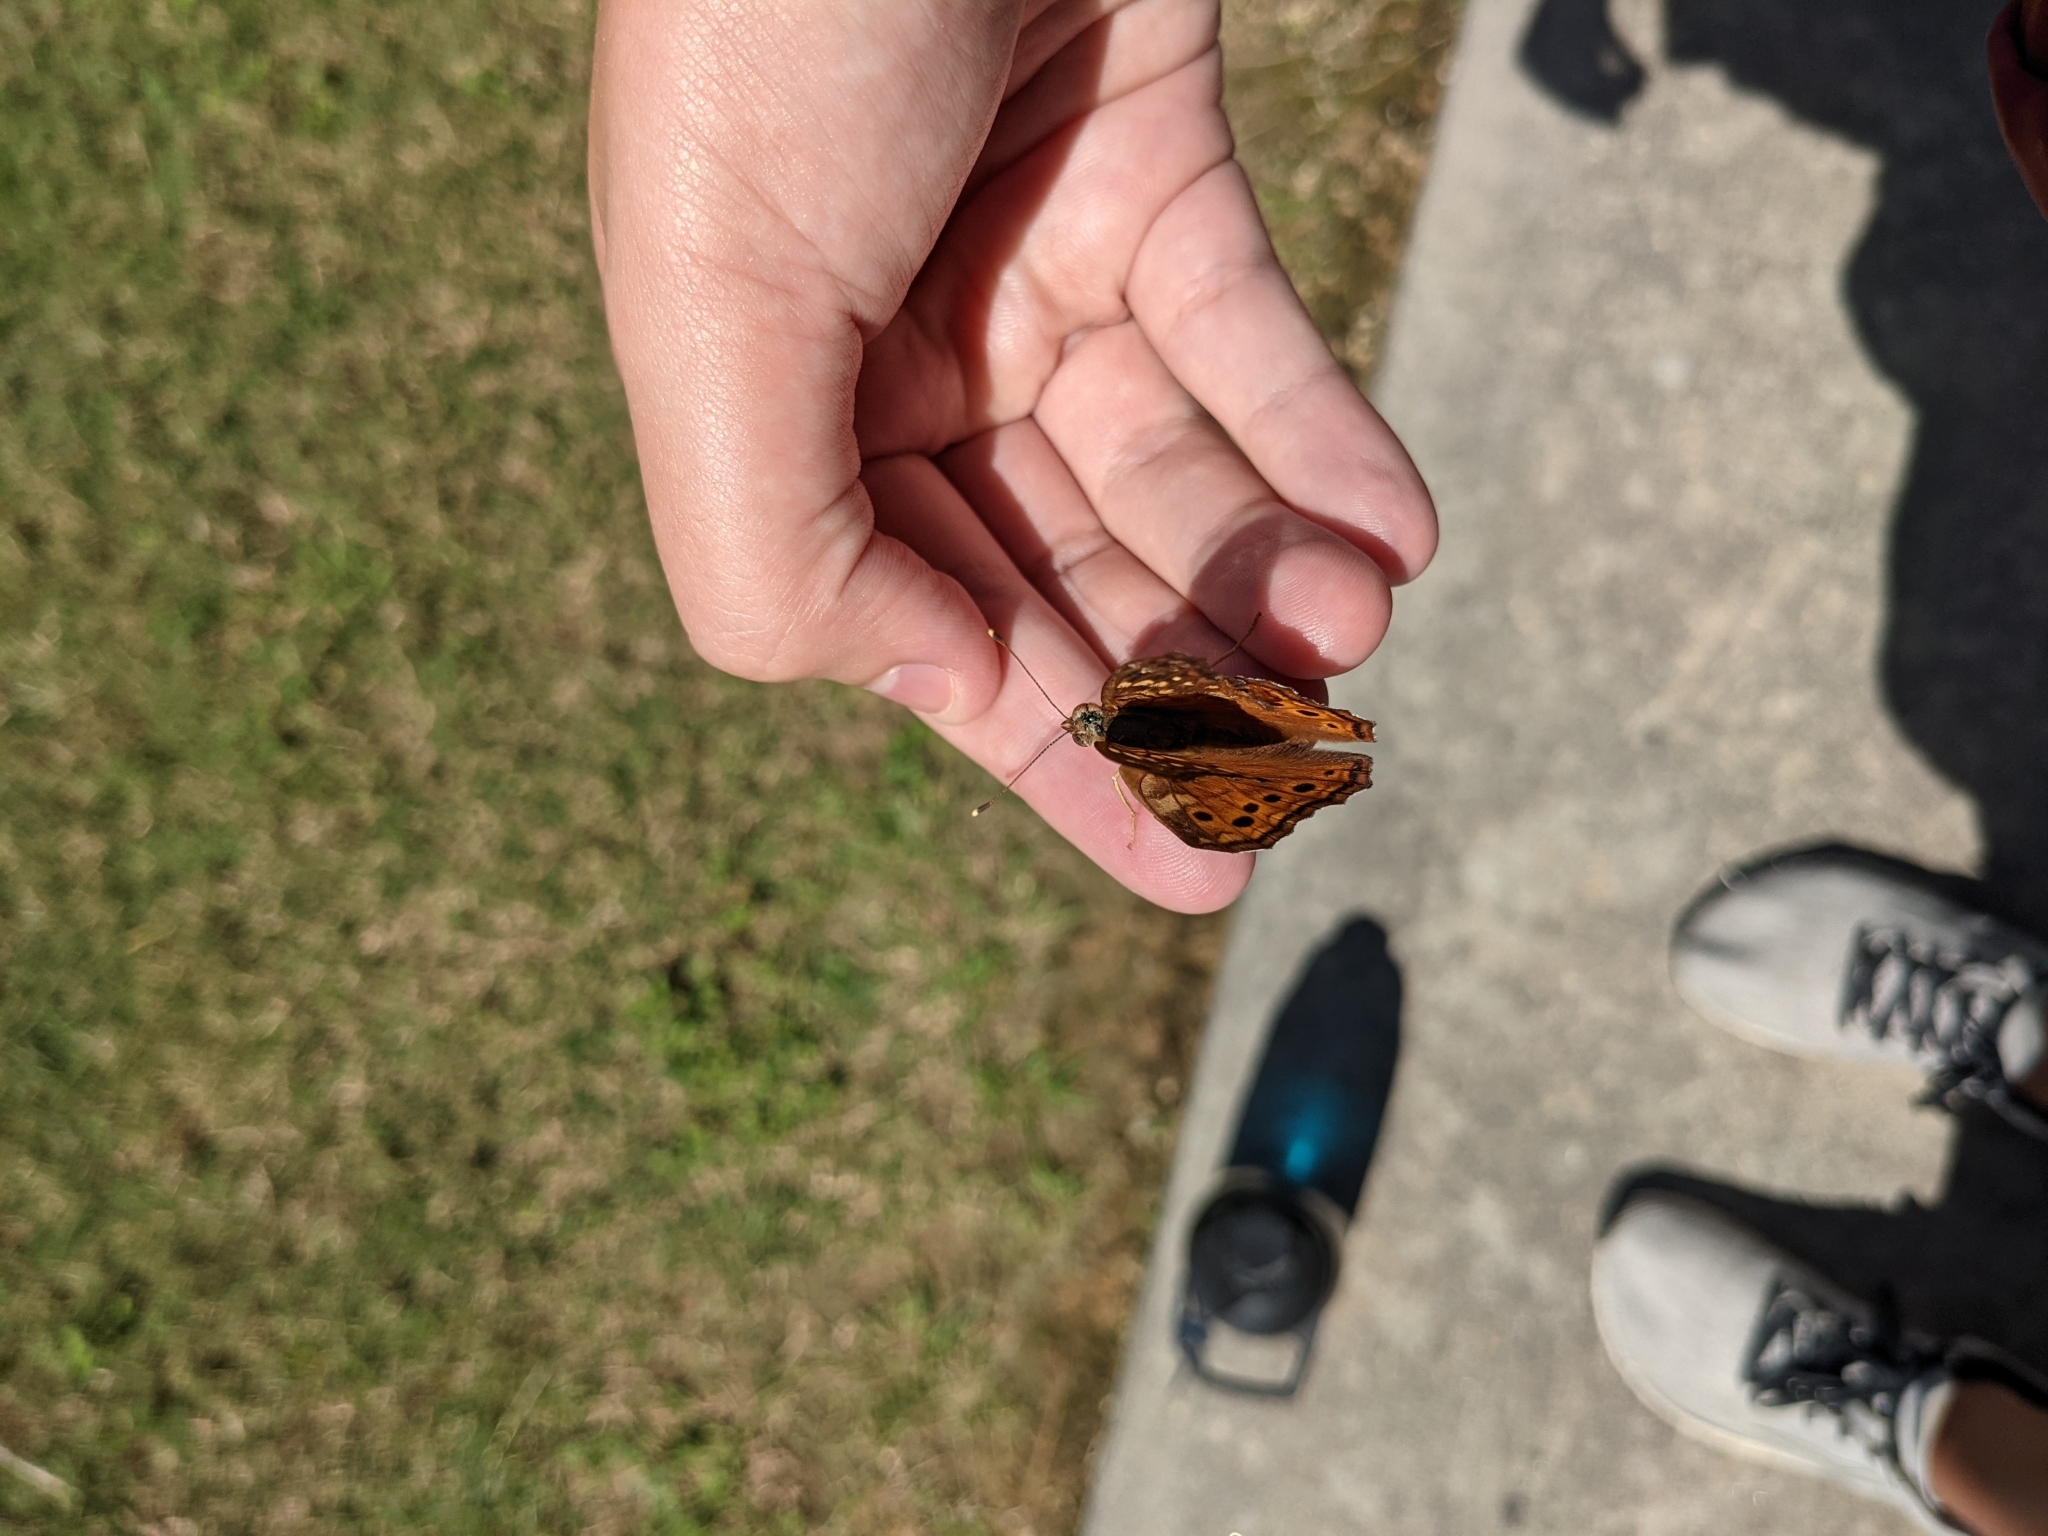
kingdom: Animalia
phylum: Arthropoda
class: Insecta
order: Lepidoptera
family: Nymphalidae
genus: Asterocampa
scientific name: Asterocampa clyton
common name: Tawny emperor
